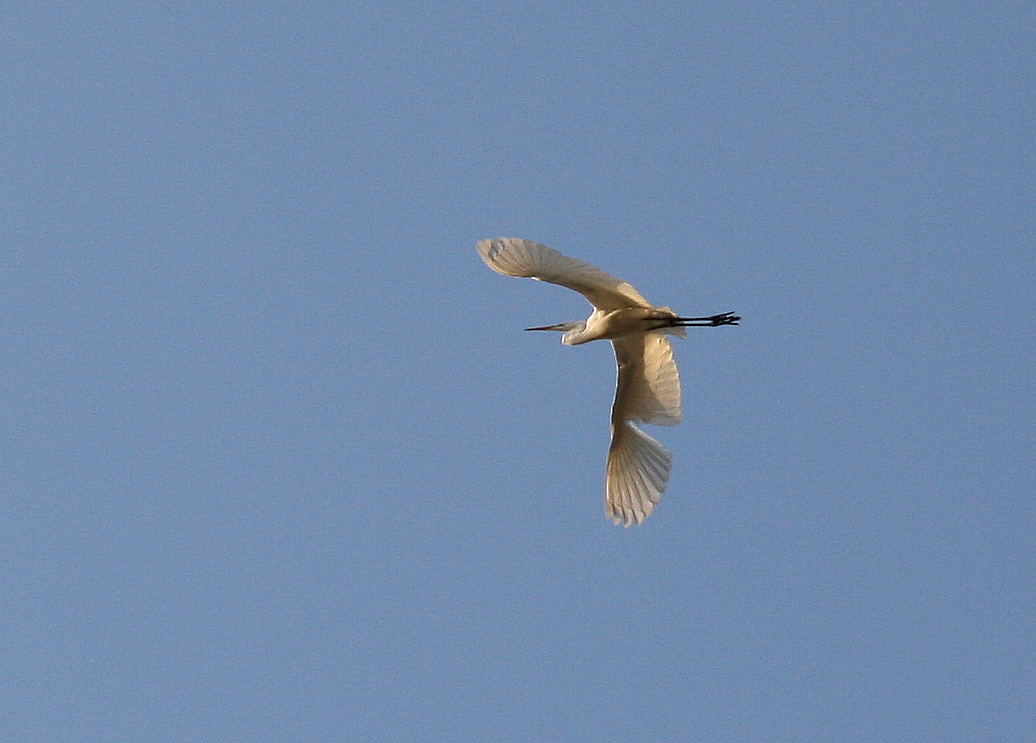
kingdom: Animalia
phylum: Chordata
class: Aves
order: Pelecaniformes
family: Ardeidae
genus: Ardea
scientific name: Ardea alba
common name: Great egret
